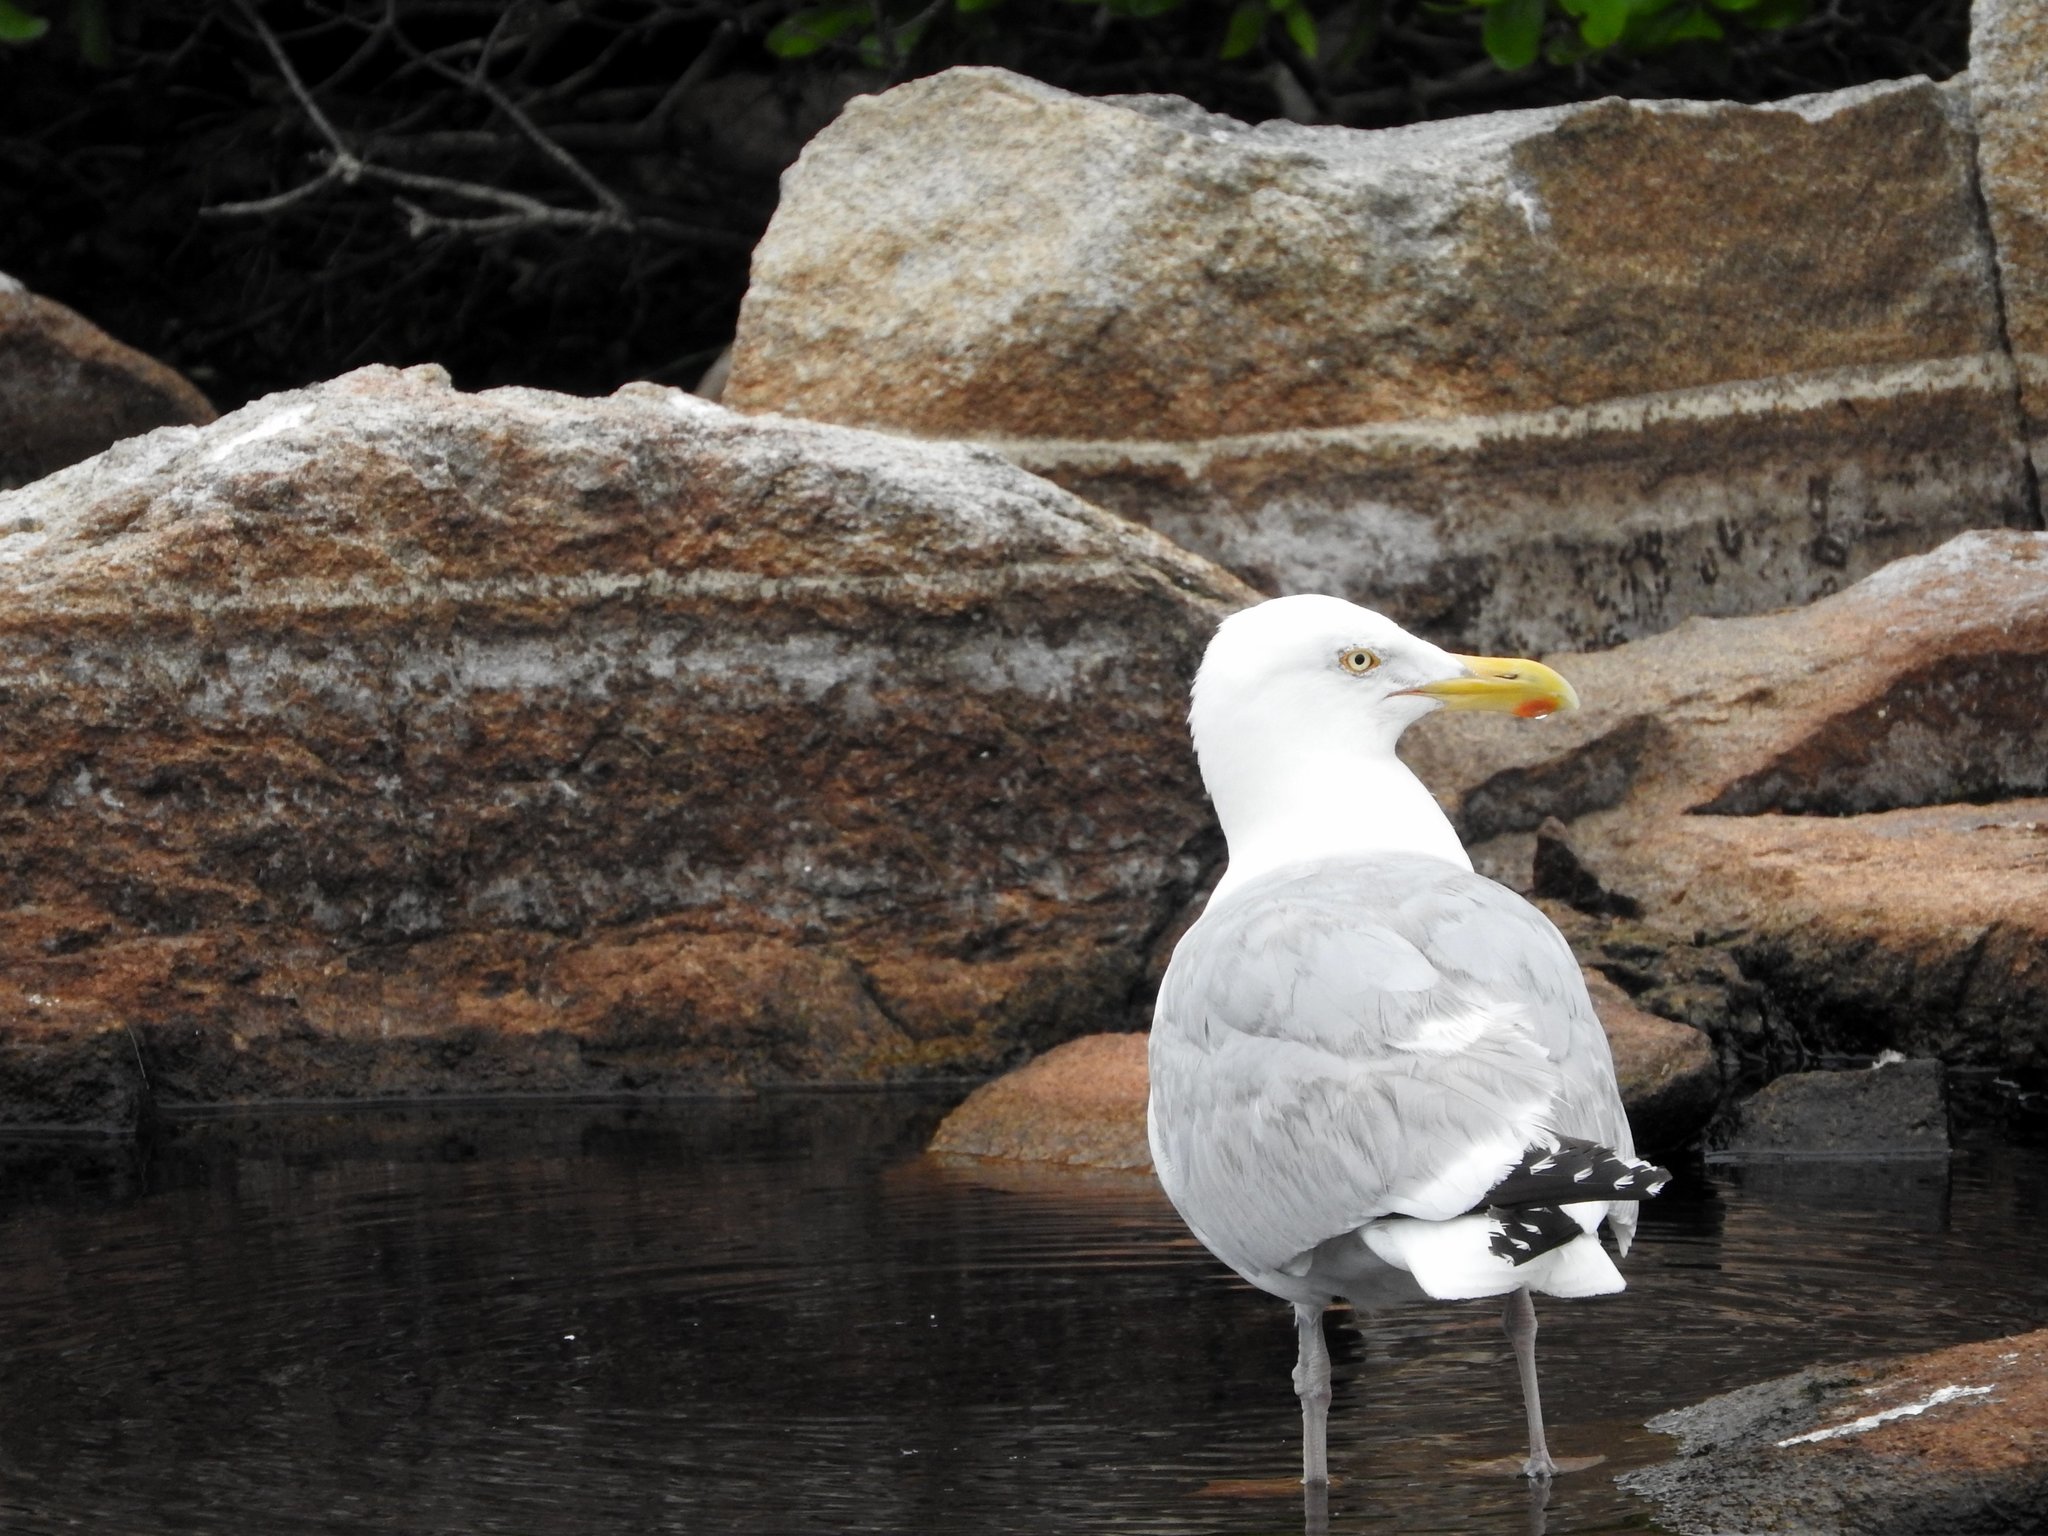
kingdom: Animalia
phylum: Chordata
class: Aves
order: Charadriiformes
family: Laridae
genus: Larus
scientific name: Larus argentatus
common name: Herring gull
